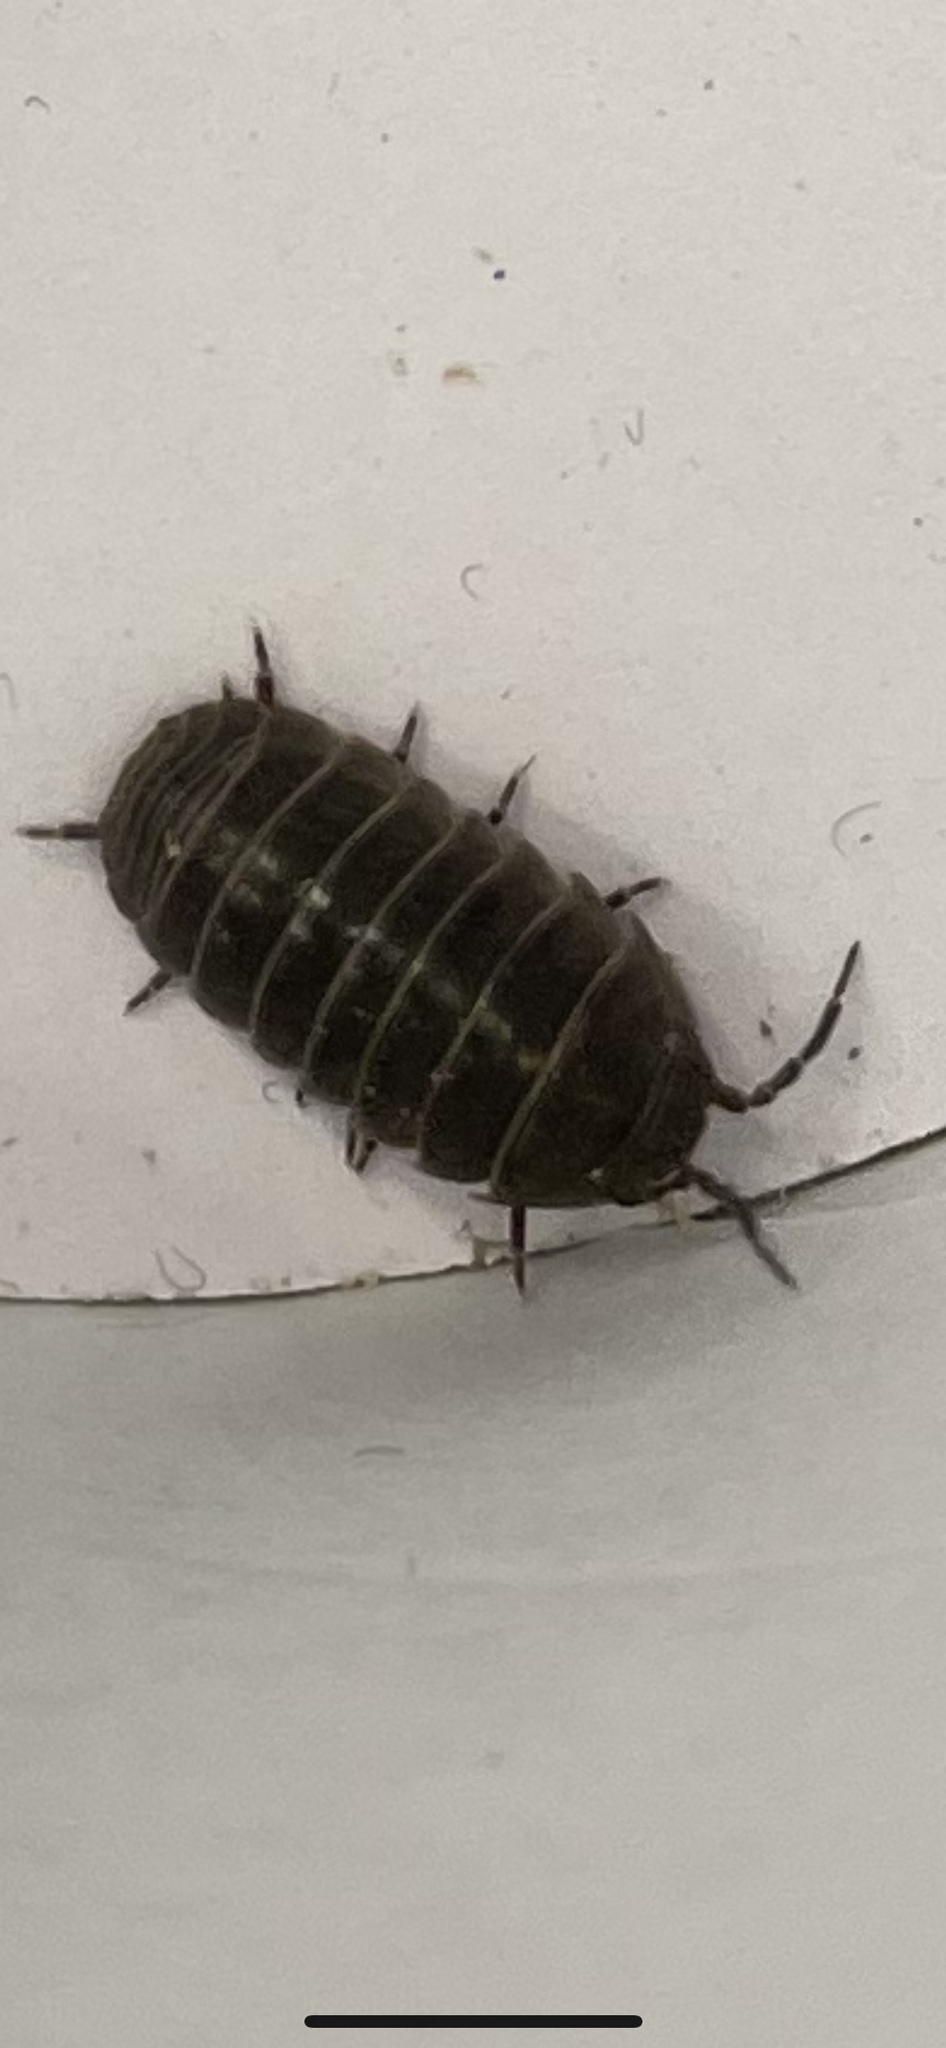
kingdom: Animalia
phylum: Arthropoda
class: Malacostraca
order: Isopoda
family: Armadillidiidae
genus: Armadillidium
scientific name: Armadillidium vulgare
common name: Common pill woodlouse
